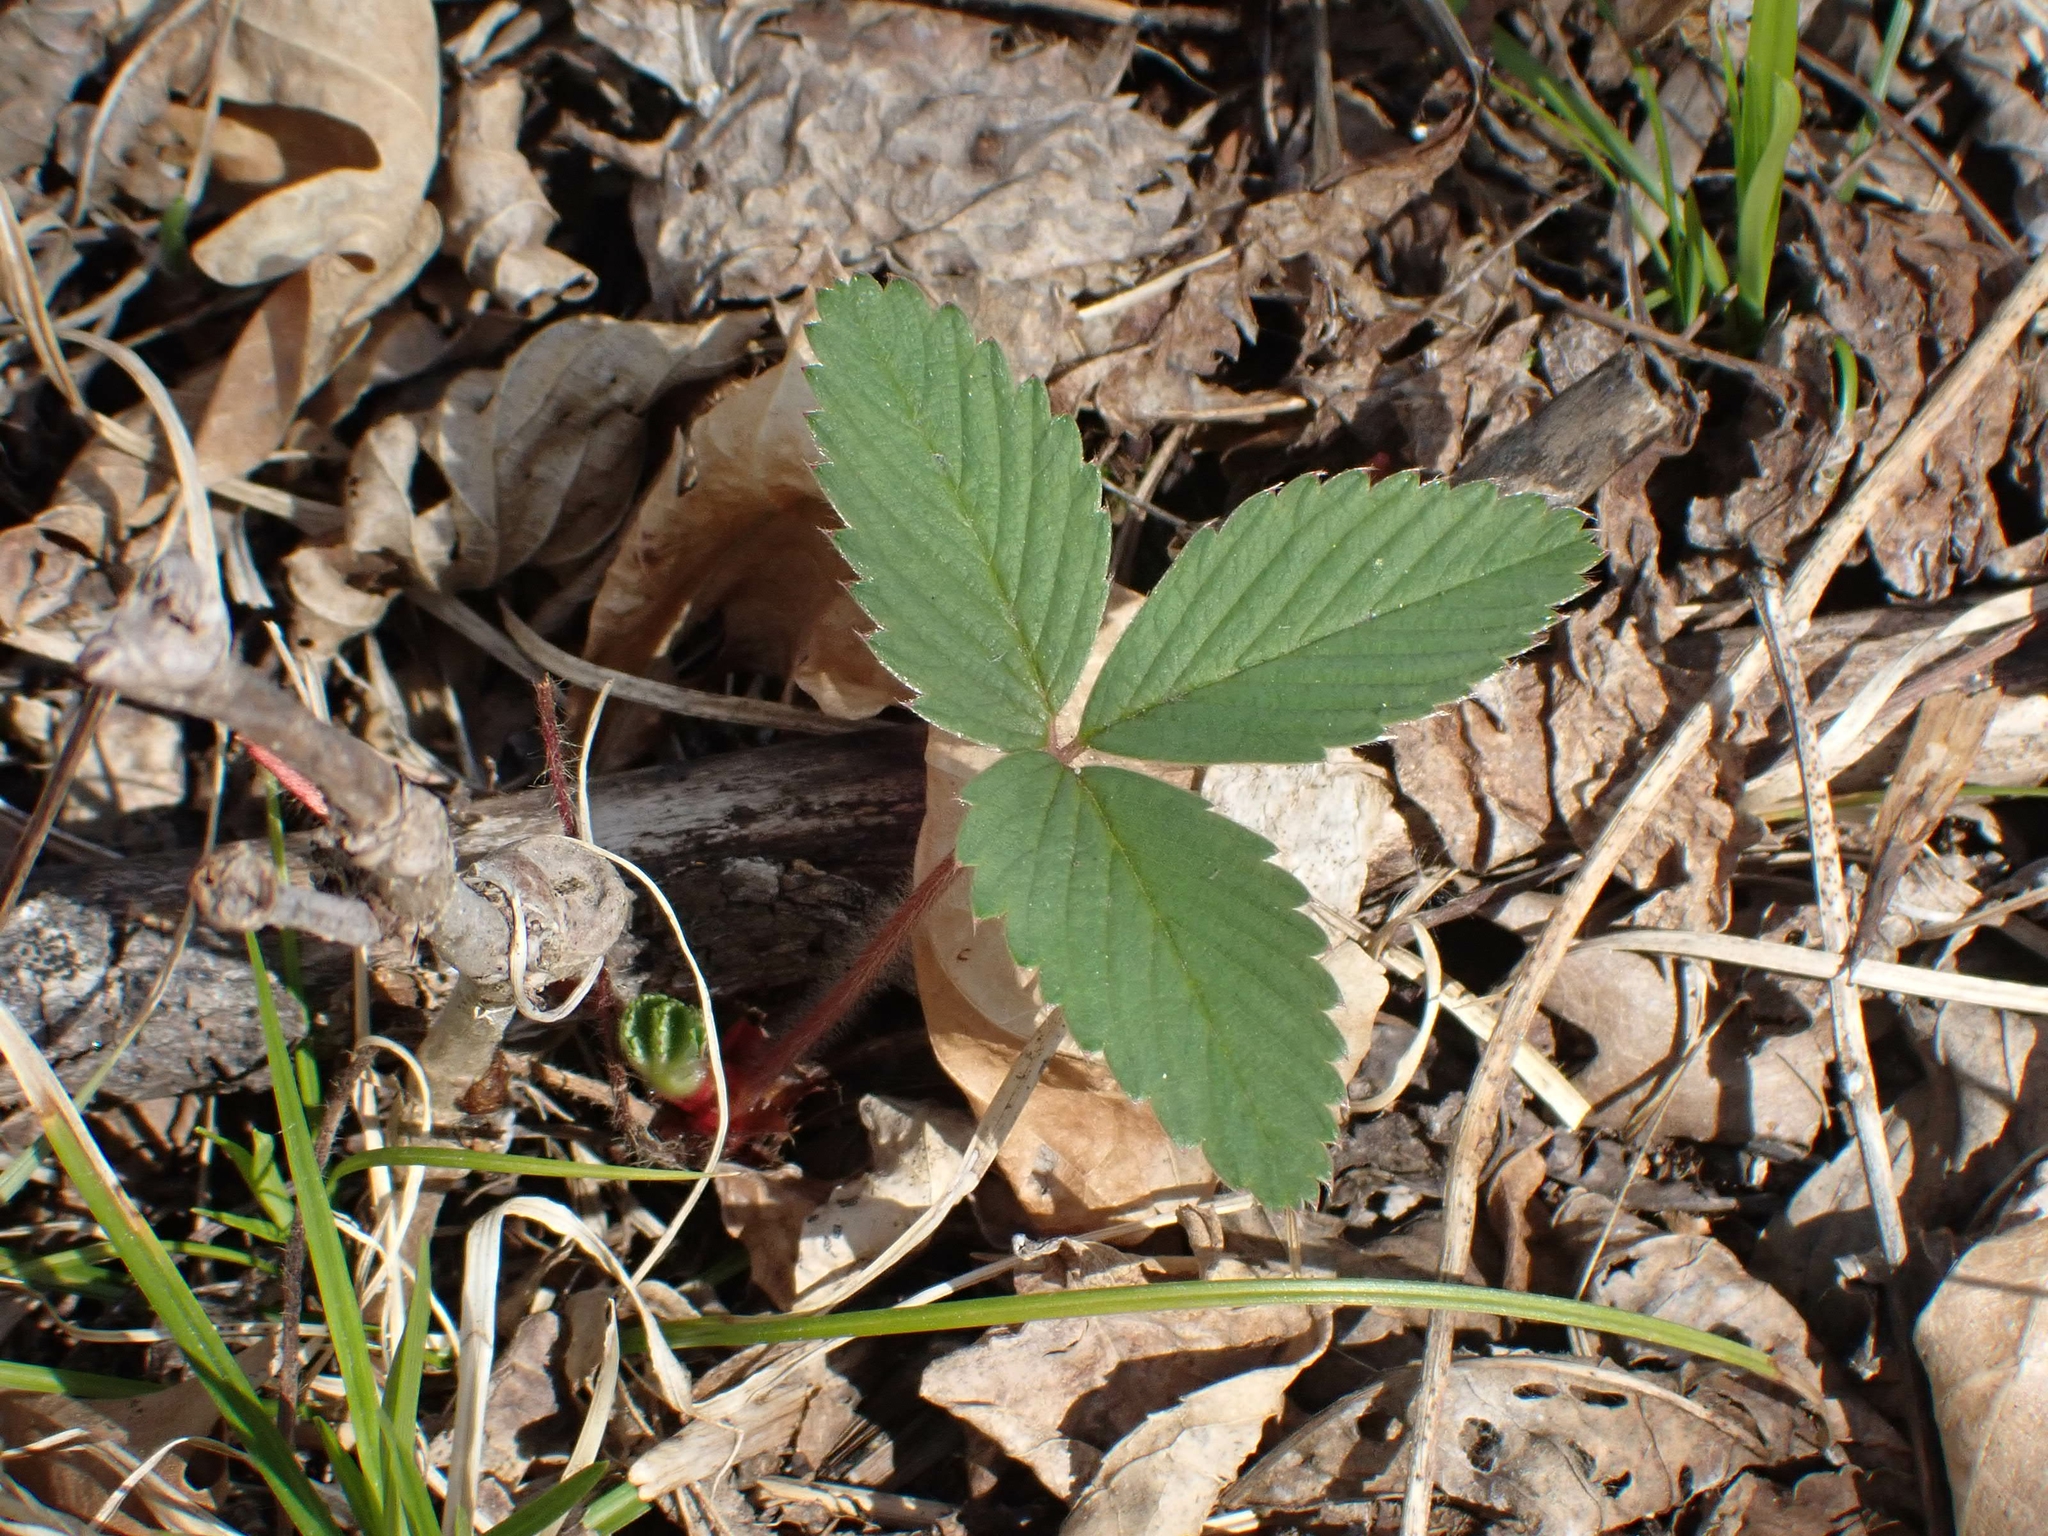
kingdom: Plantae
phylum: Tracheophyta
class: Magnoliopsida
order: Rosales
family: Rosaceae
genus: Fragaria
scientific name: Fragaria virginiana
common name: Thickleaved wild strawberry
